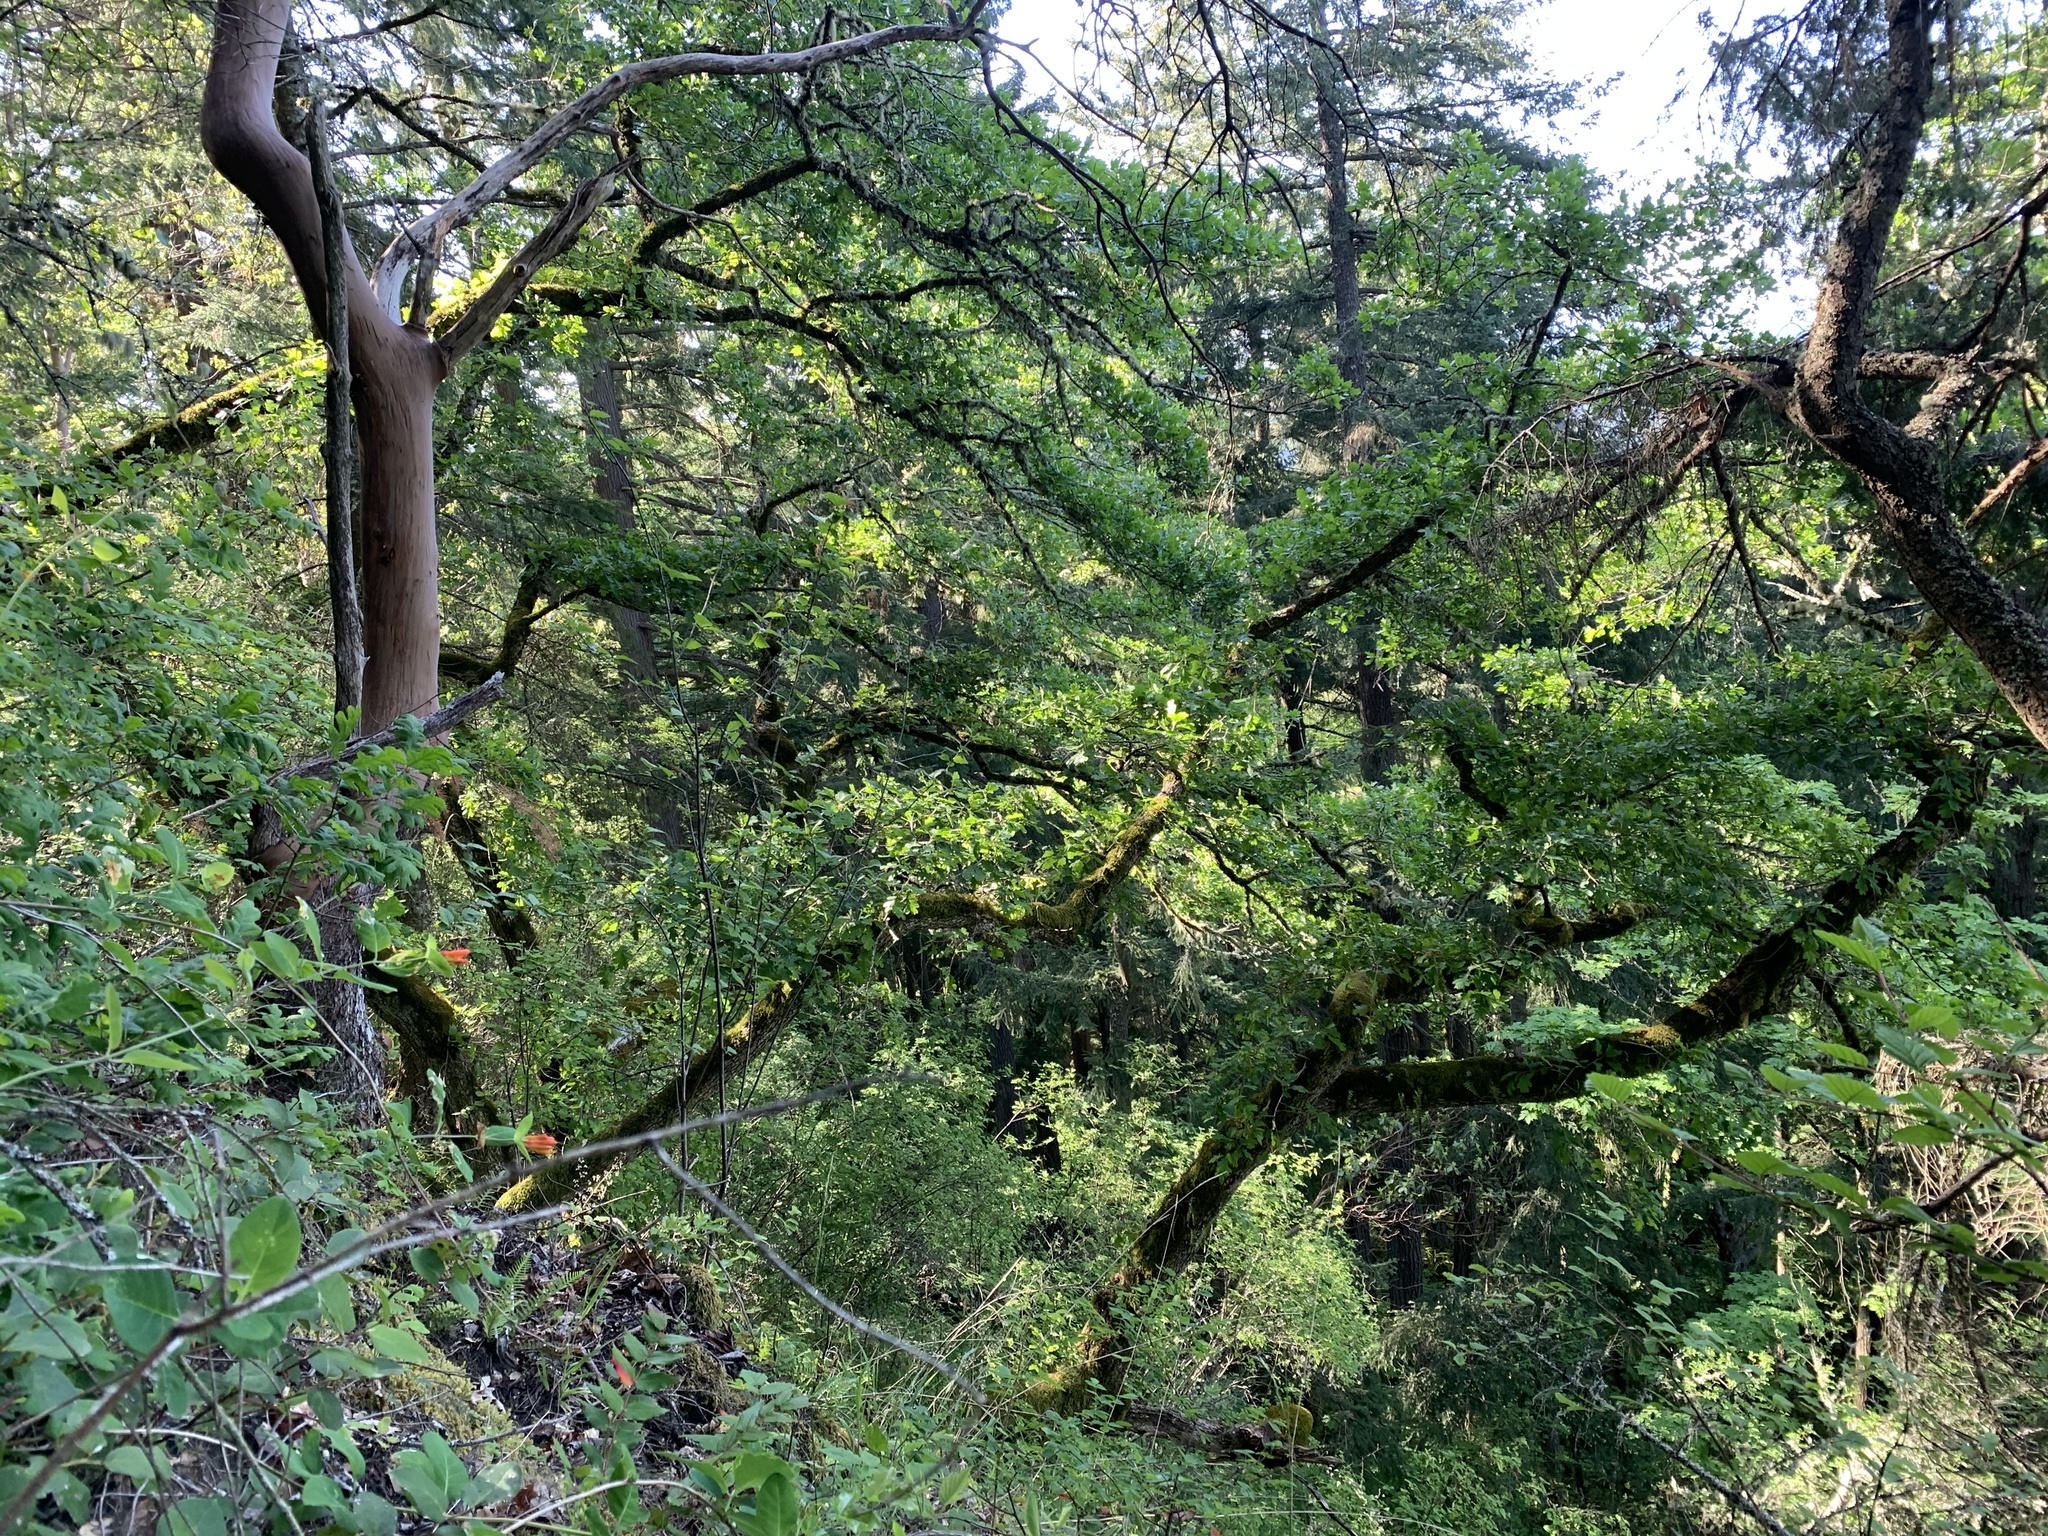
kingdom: Plantae
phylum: Tracheophyta
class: Magnoliopsida
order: Fagales
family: Fagaceae
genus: Quercus
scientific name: Quercus garryana
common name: Garry oak
